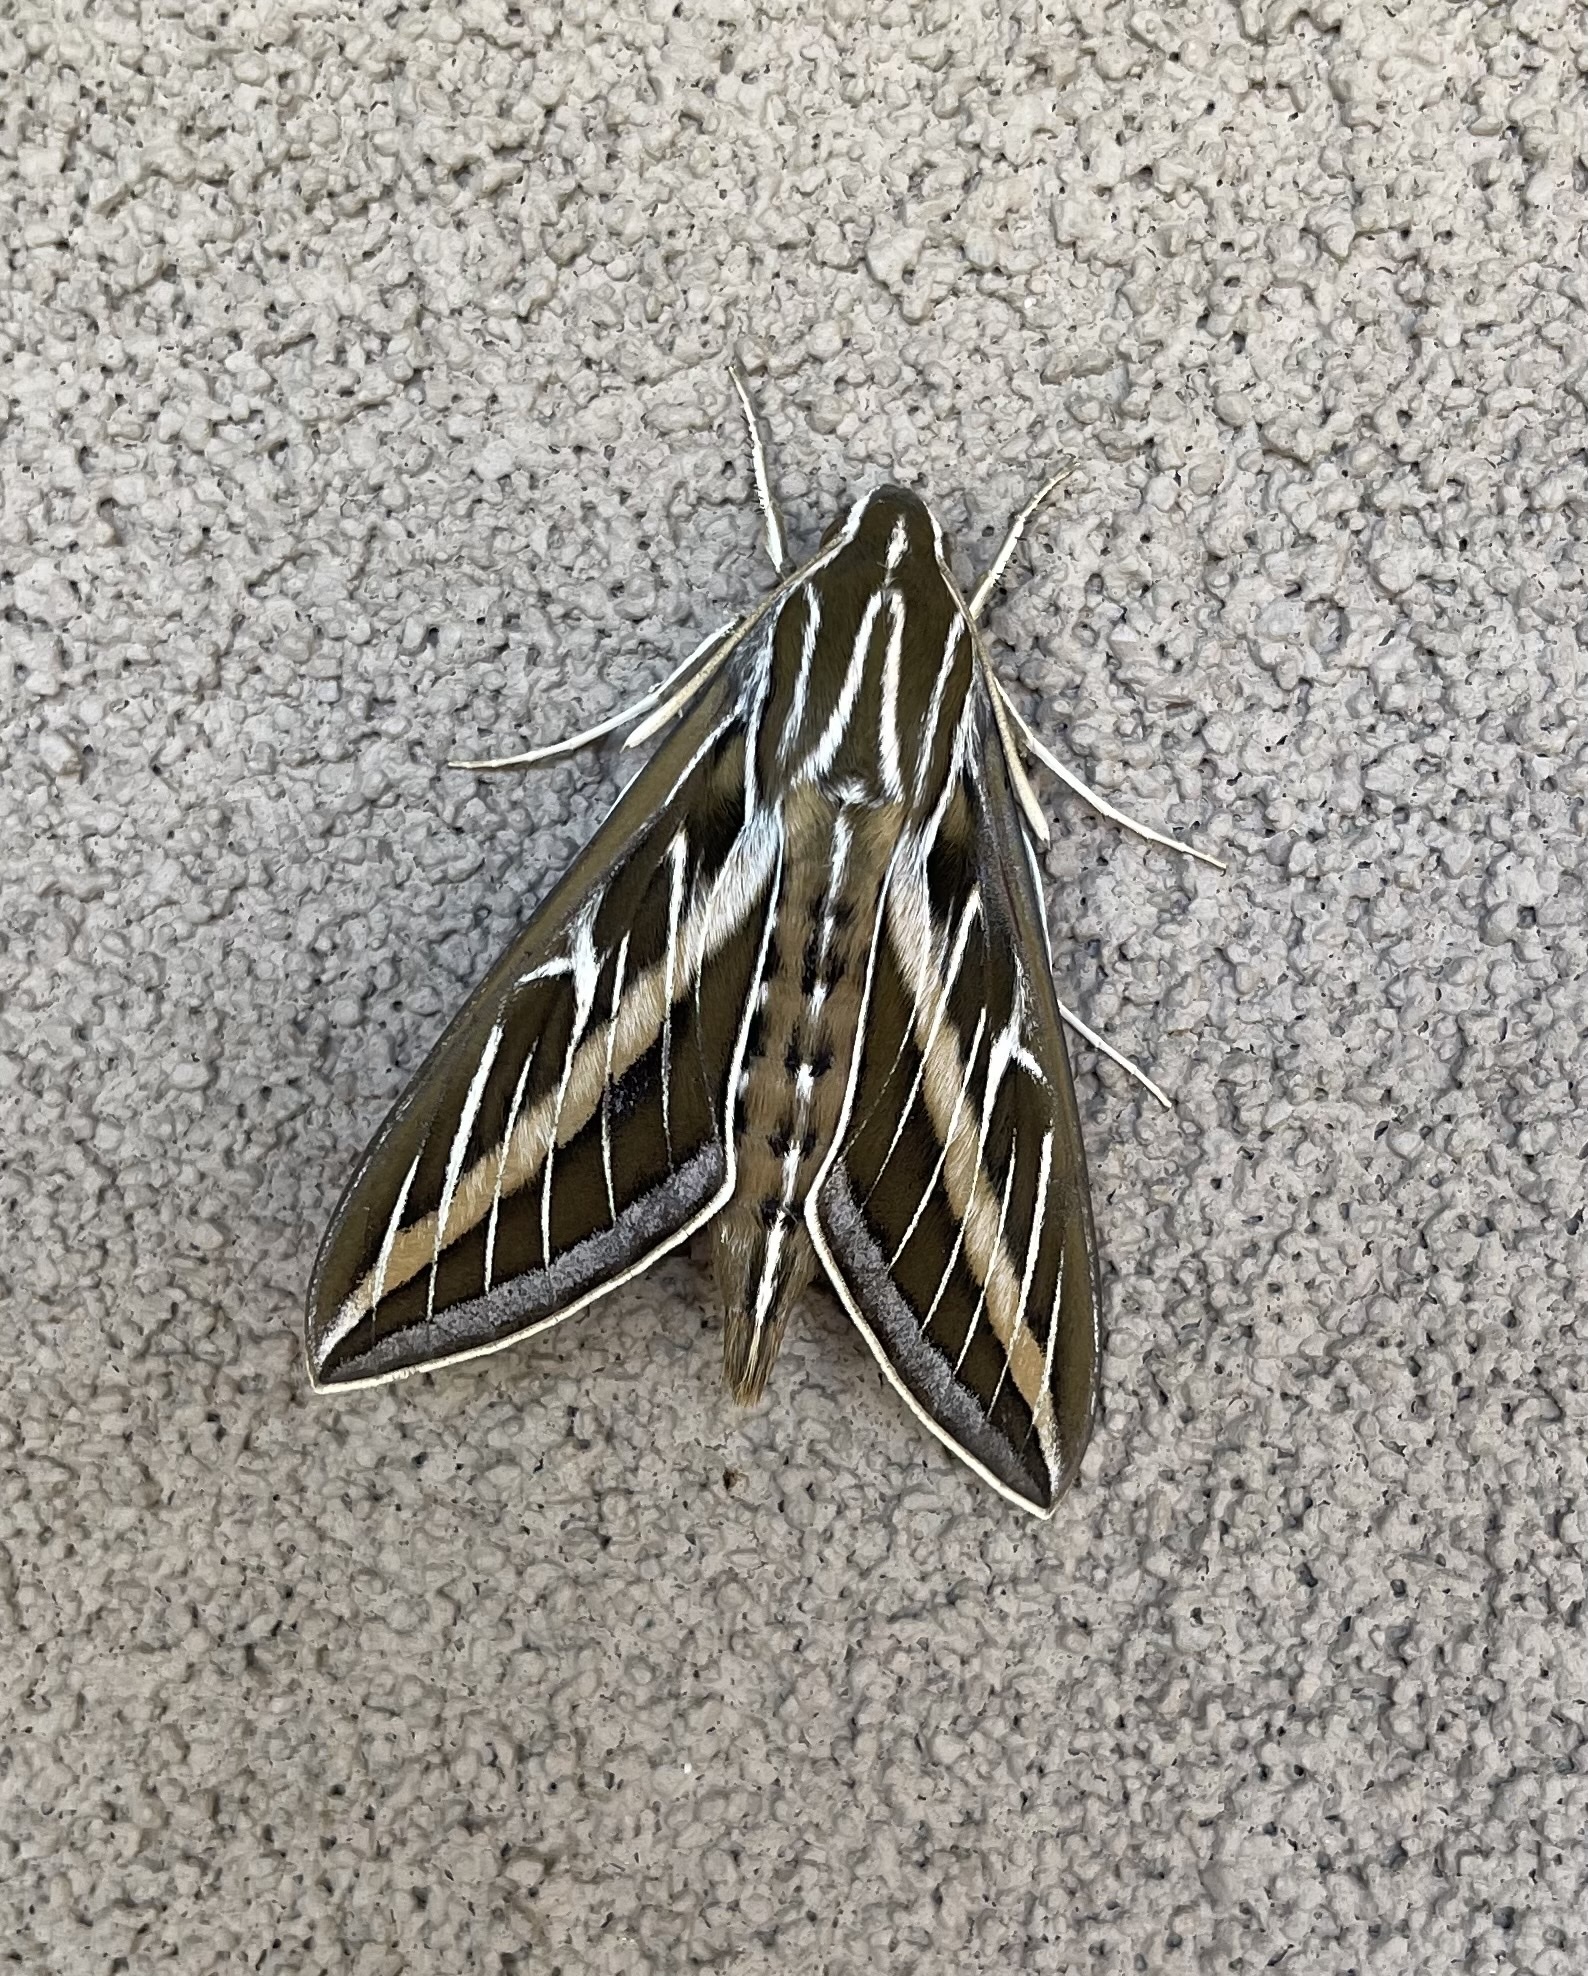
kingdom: Animalia
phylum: Arthropoda
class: Insecta
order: Lepidoptera
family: Sphingidae
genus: Hyles
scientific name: Hyles lineata
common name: White-lined sphinx
